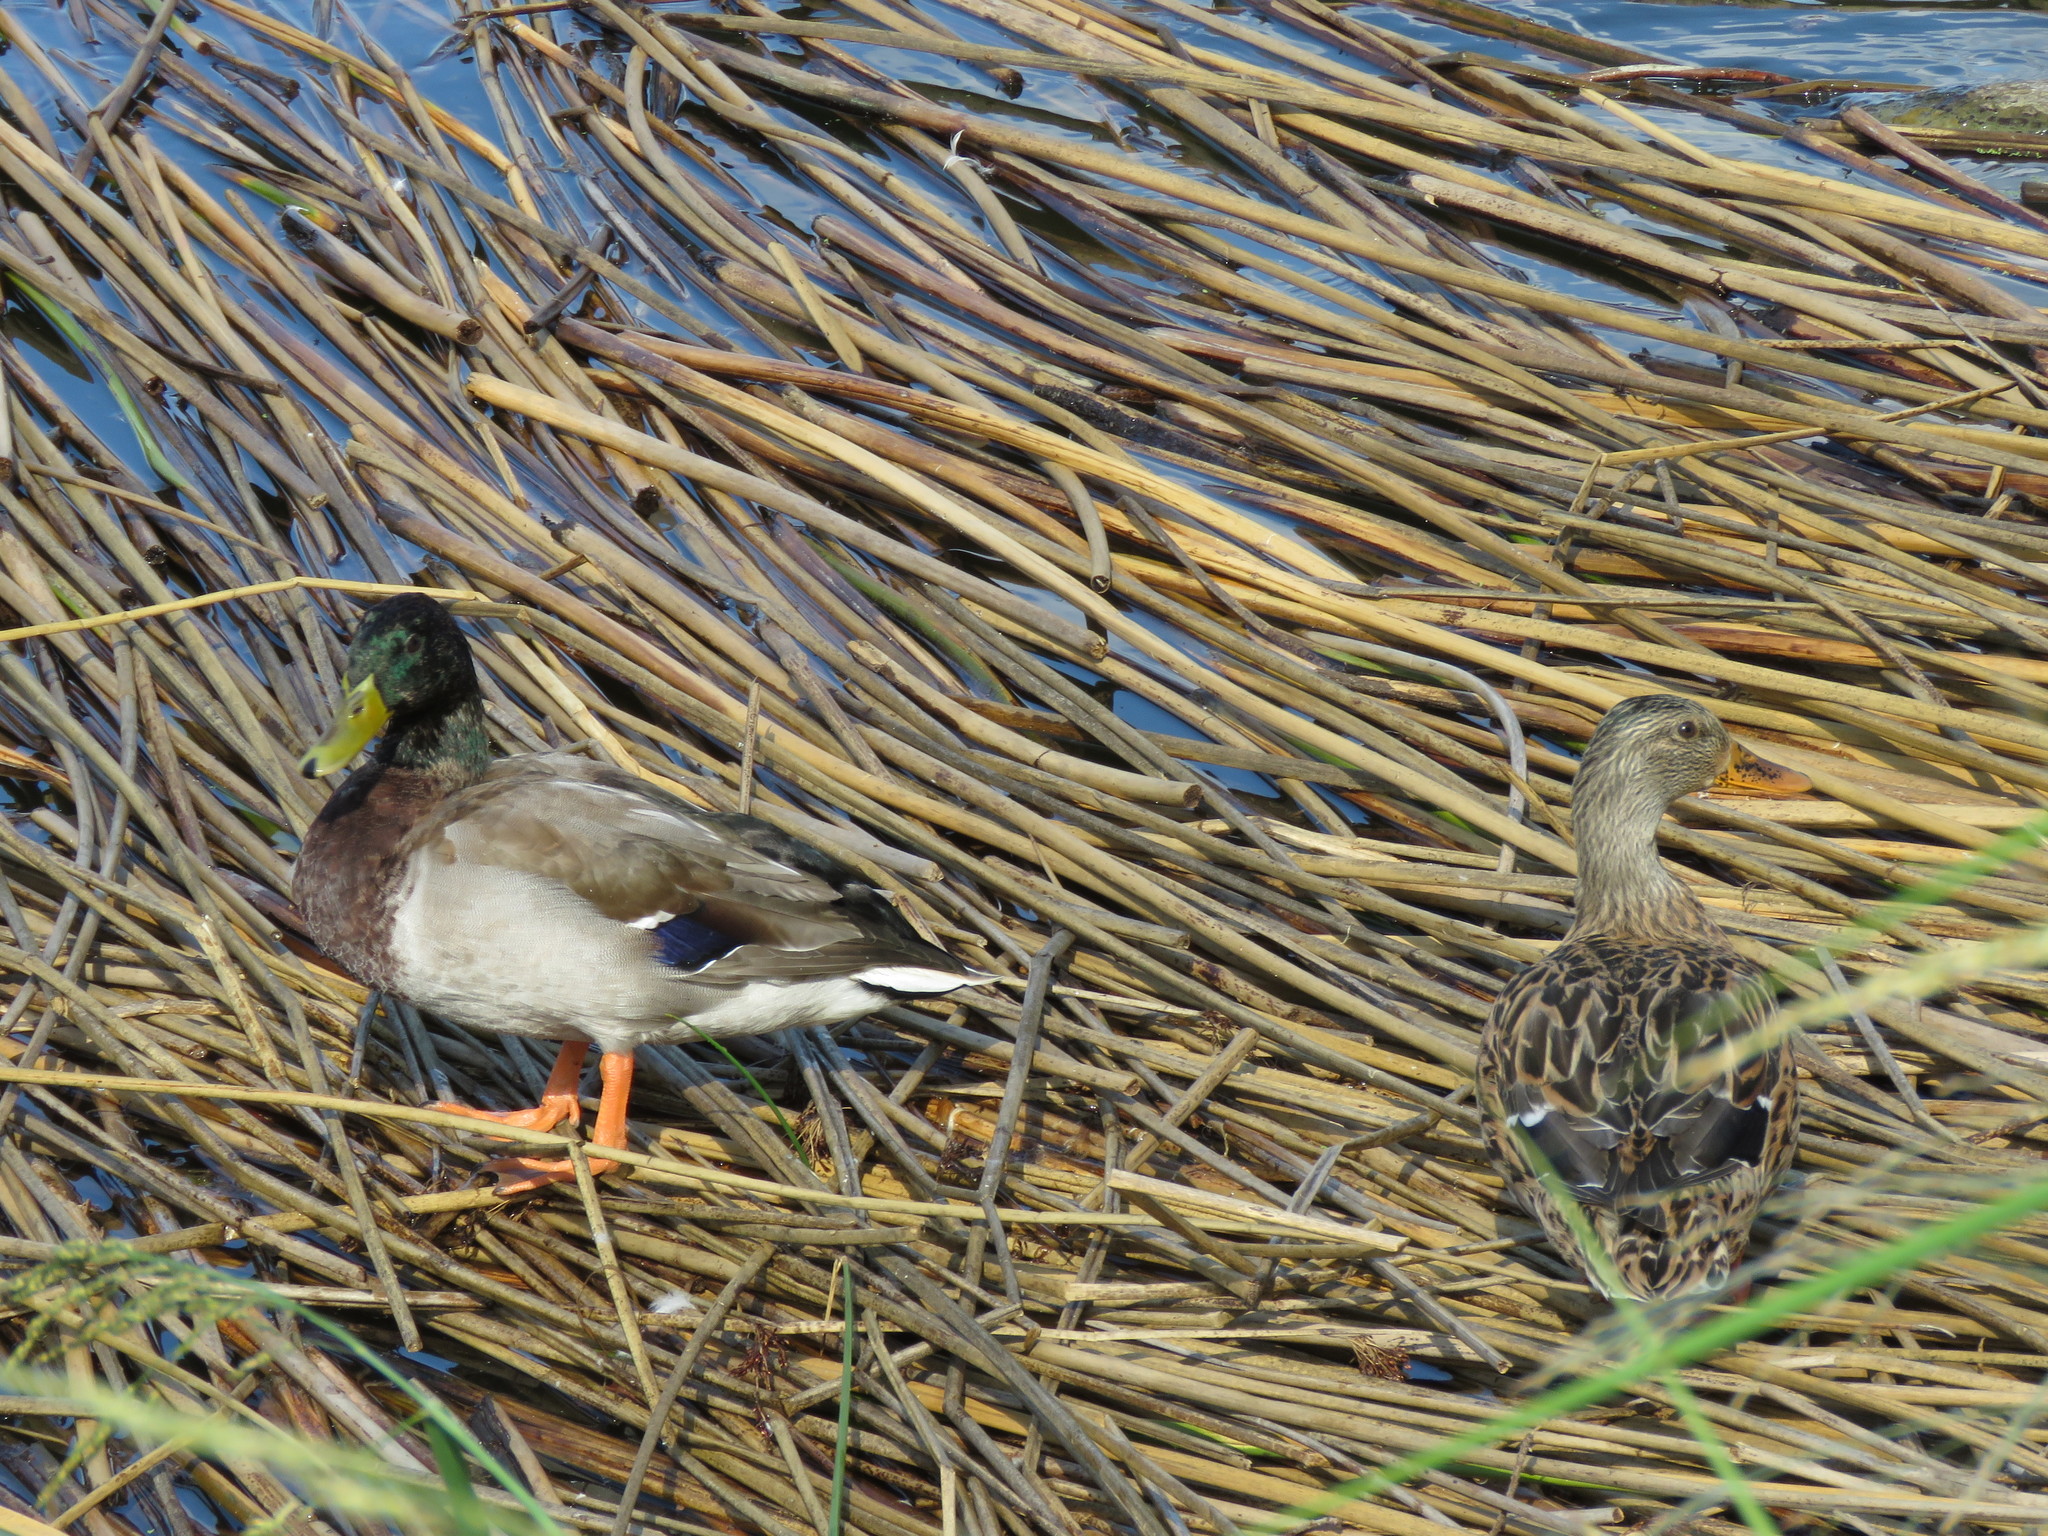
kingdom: Animalia
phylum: Chordata
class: Aves
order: Anseriformes
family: Anatidae
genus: Anas
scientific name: Anas platyrhynchos
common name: Mallard
